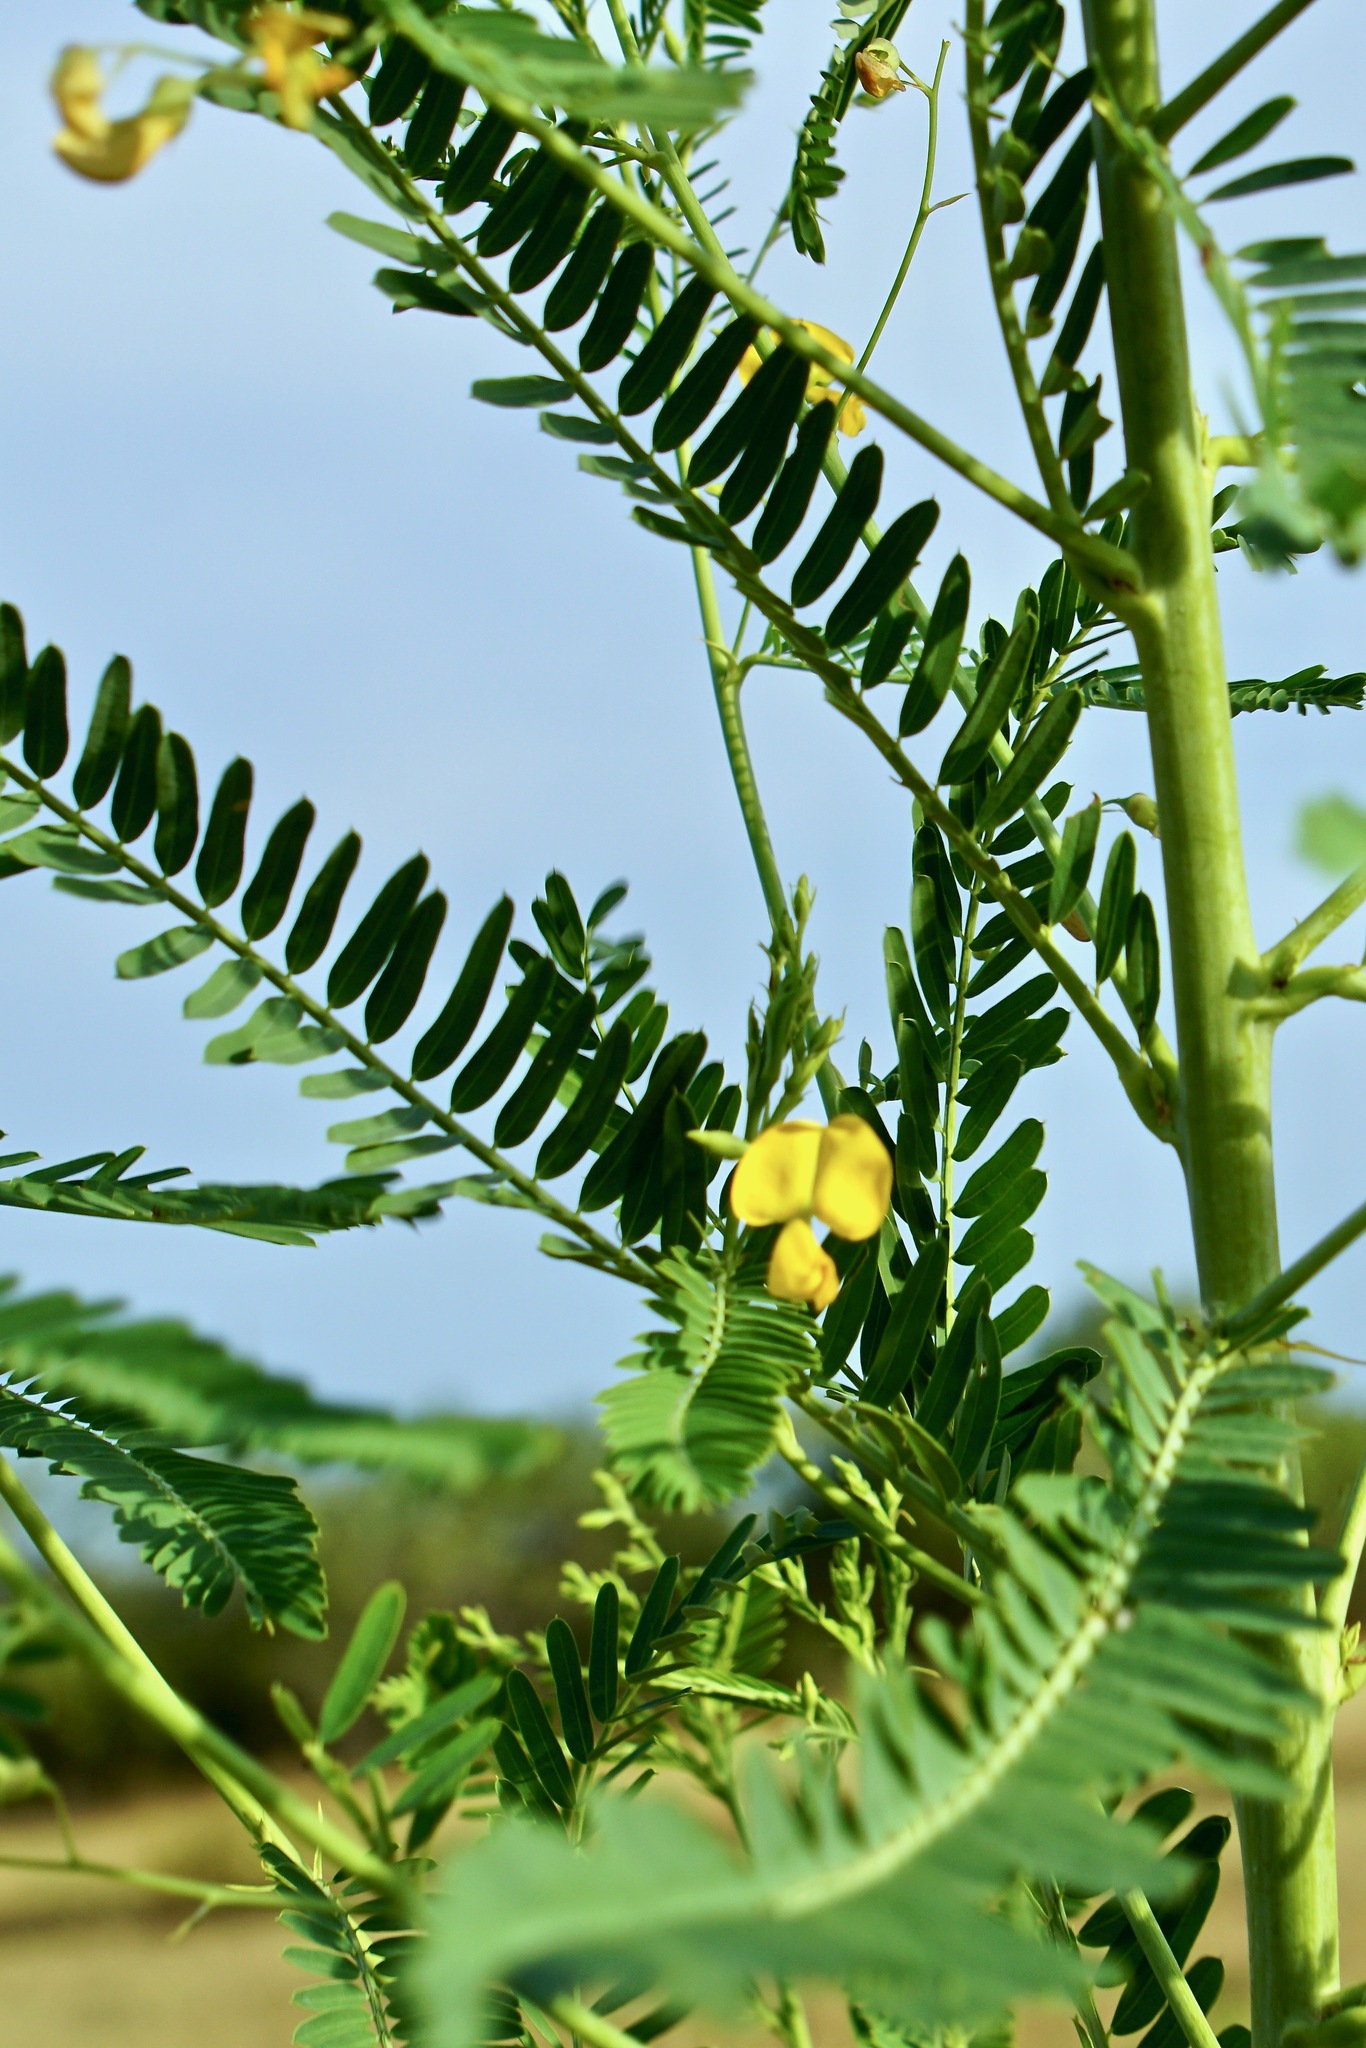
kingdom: Plantae
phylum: Tracheophyta
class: Magnoliopsida
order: Fabales
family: Fabaceae
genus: Sesbania
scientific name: Sesbania herbacea
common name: Bigpod sesbania
